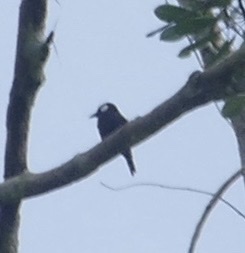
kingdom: Animalia
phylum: Chordata
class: Aves
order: Passeriformes
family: Cracticidae
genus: Peltops
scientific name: Peltops blainvillii
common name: Lowland peltops
